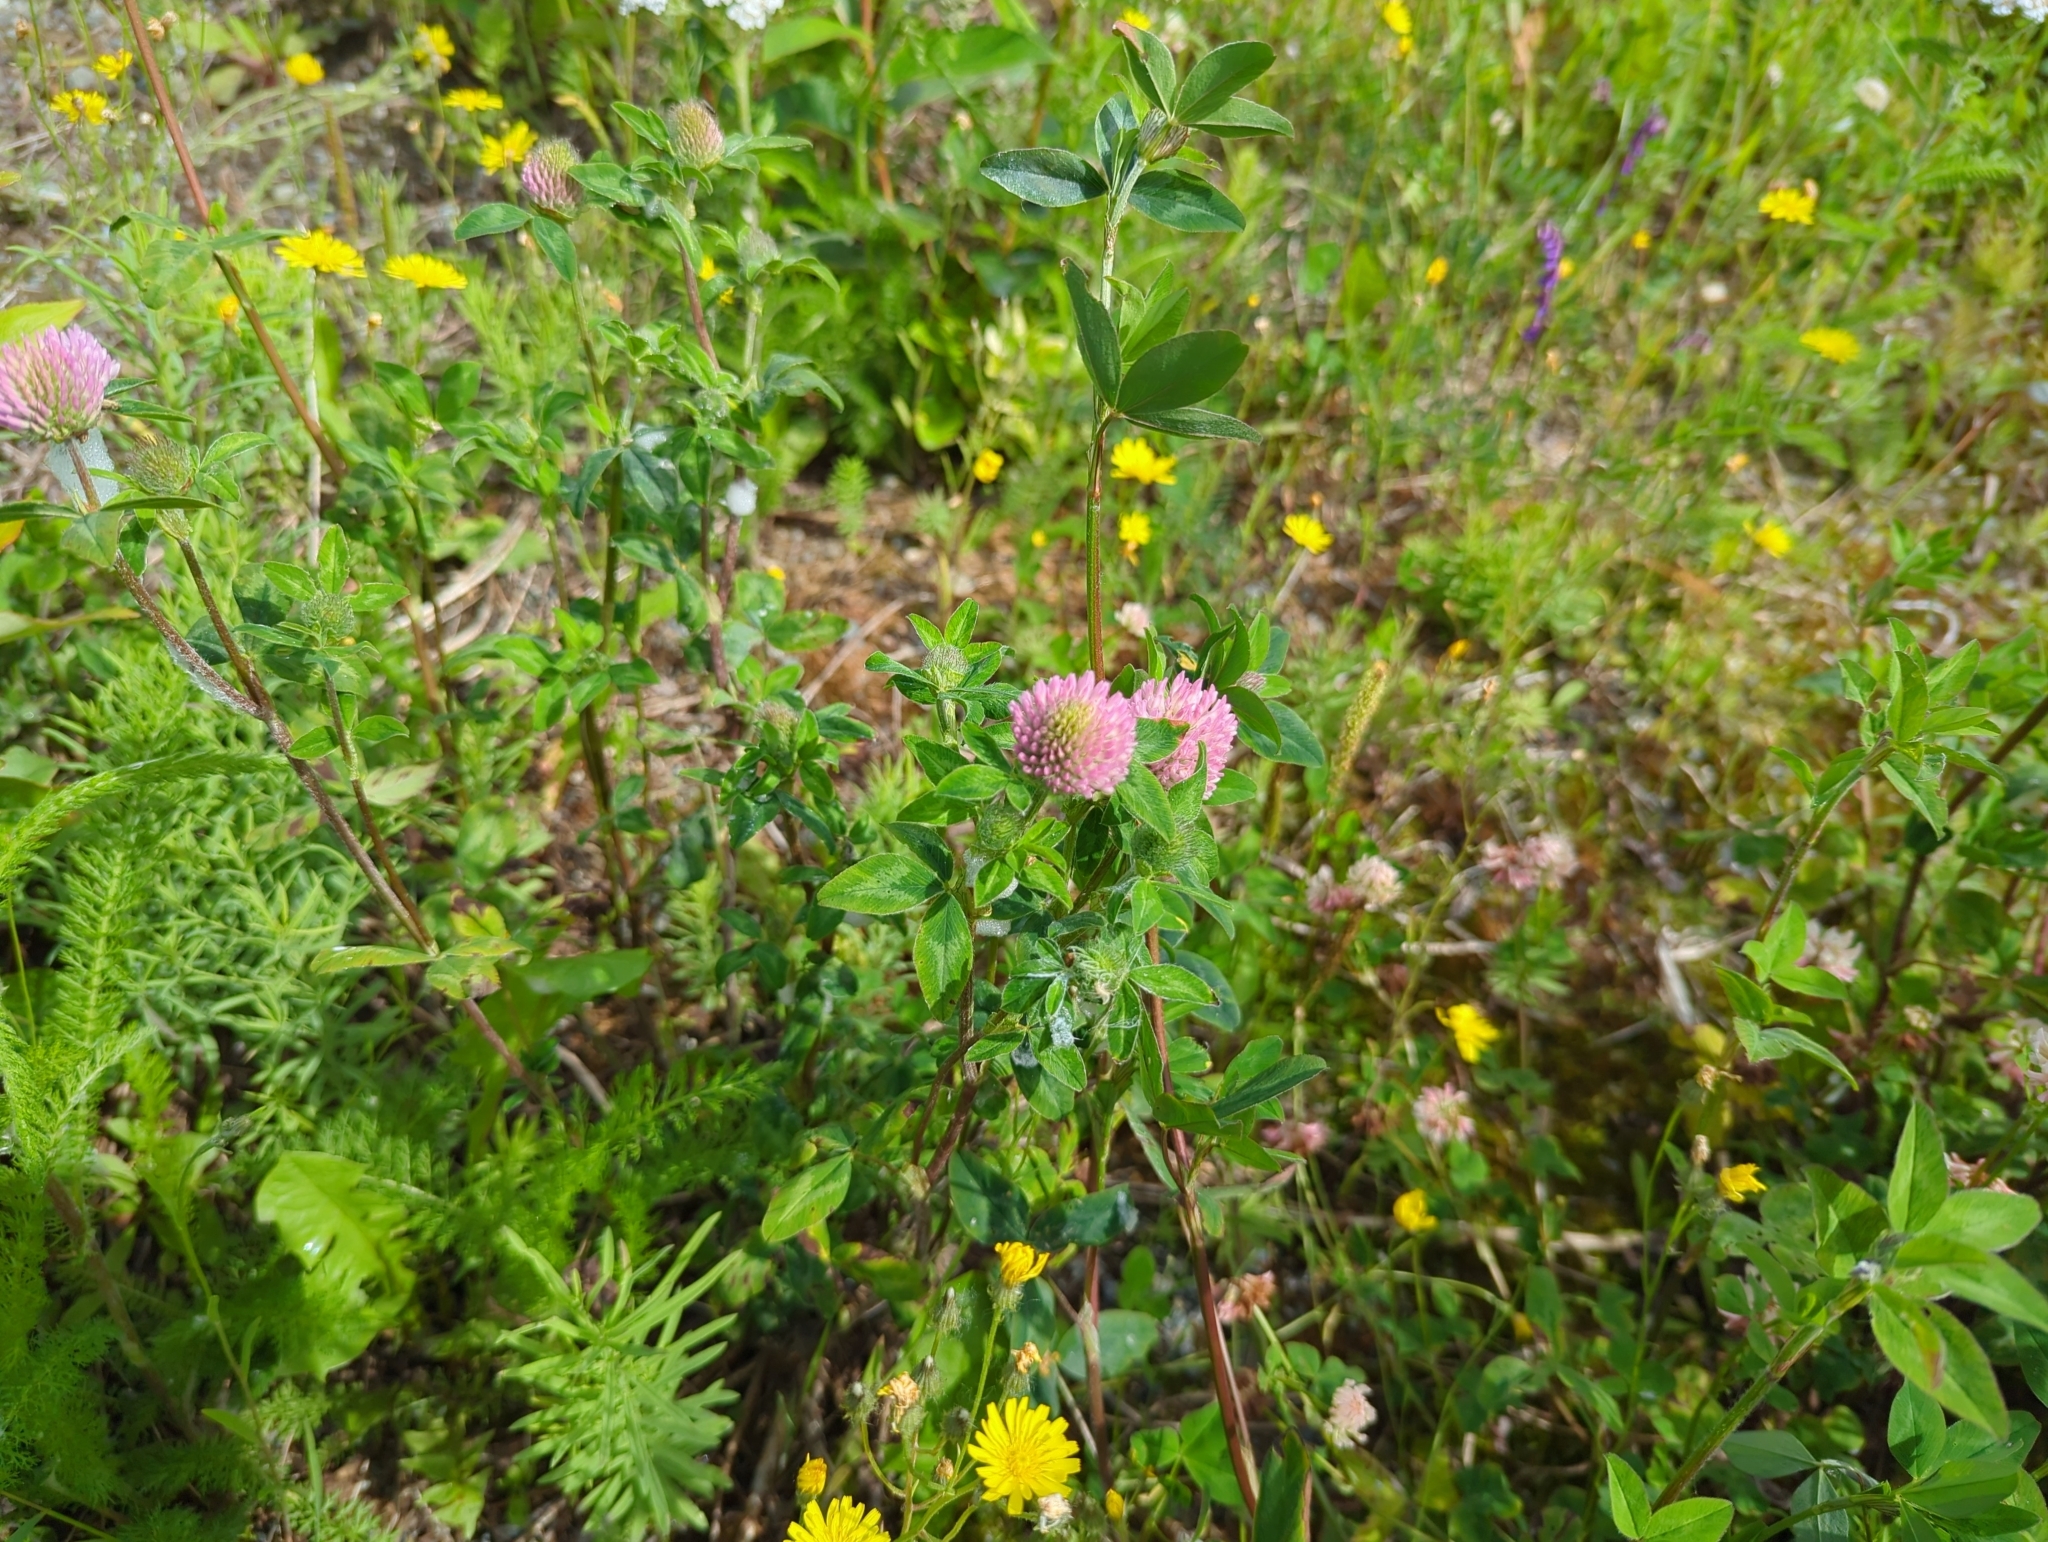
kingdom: Plantae
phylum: Tracheophyta
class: Magnoliopsida
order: Fabales
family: Fabaceae
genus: Trifolium
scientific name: Trifolium pratense
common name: Red clover
